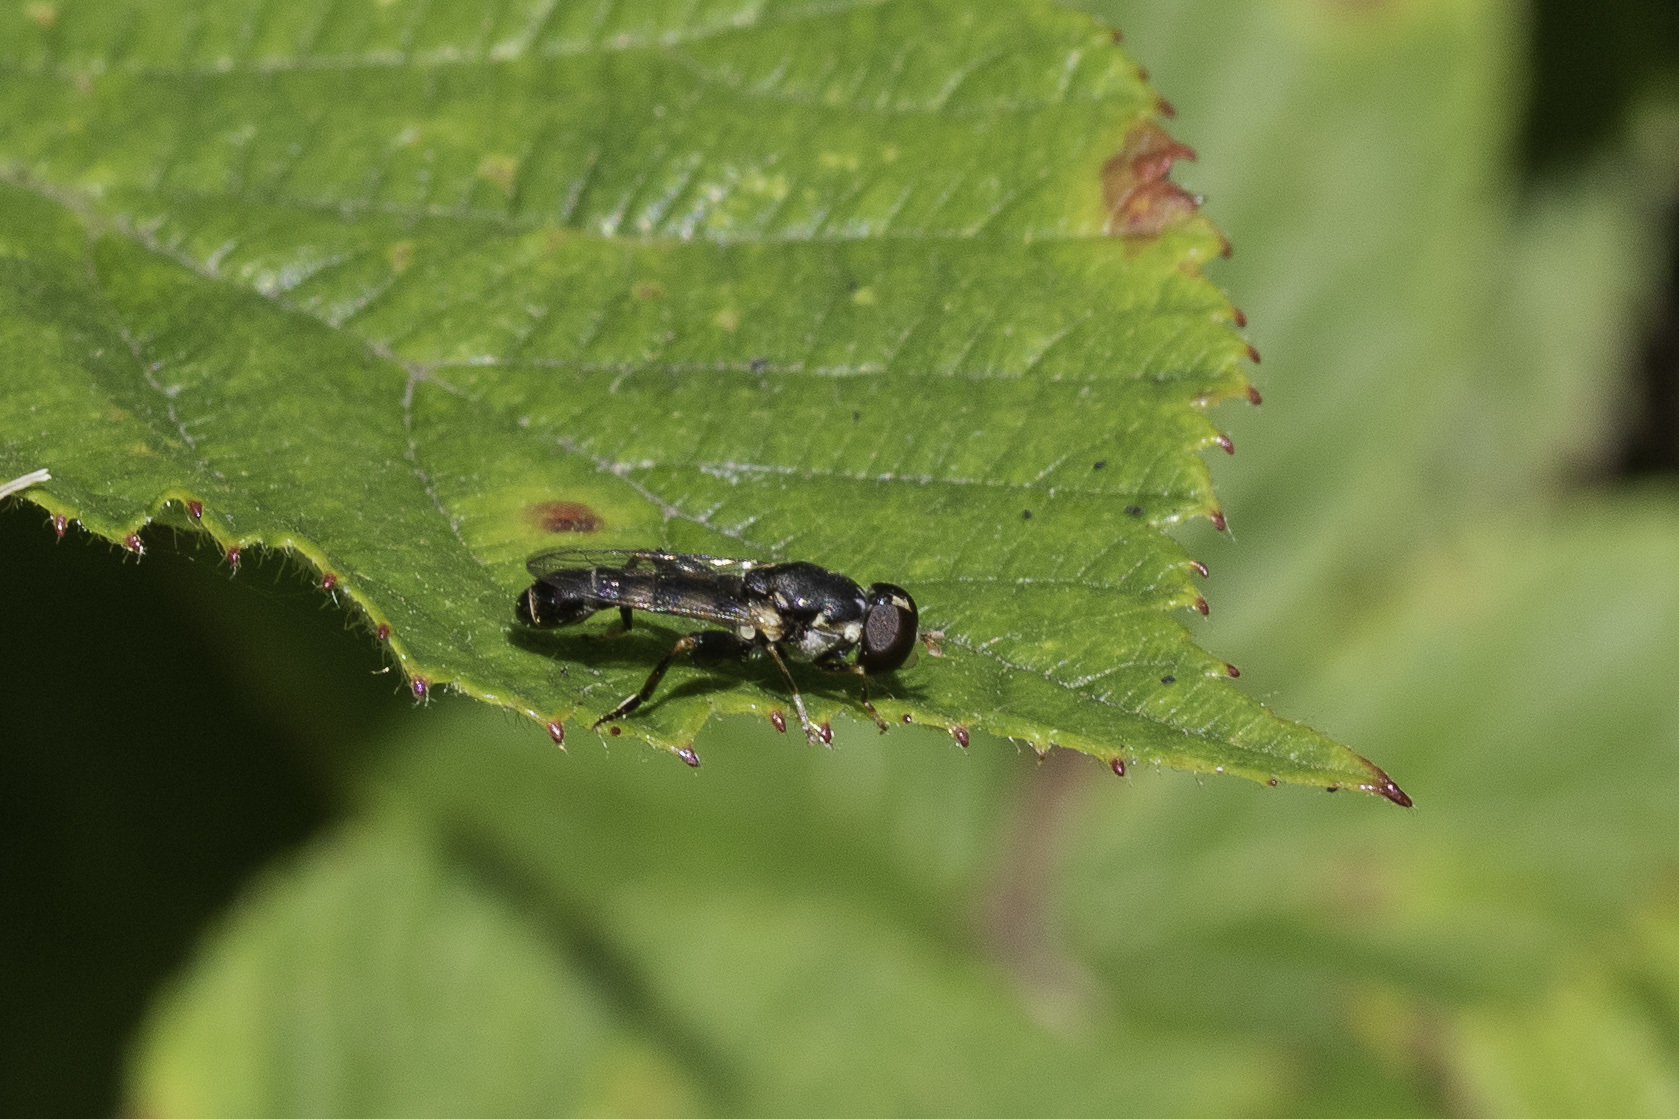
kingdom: Animalia
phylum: Arthropoda
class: Insecta
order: Diptera
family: Syrphidae
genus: Syritta
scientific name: Syritta pipiens
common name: Hover fly
